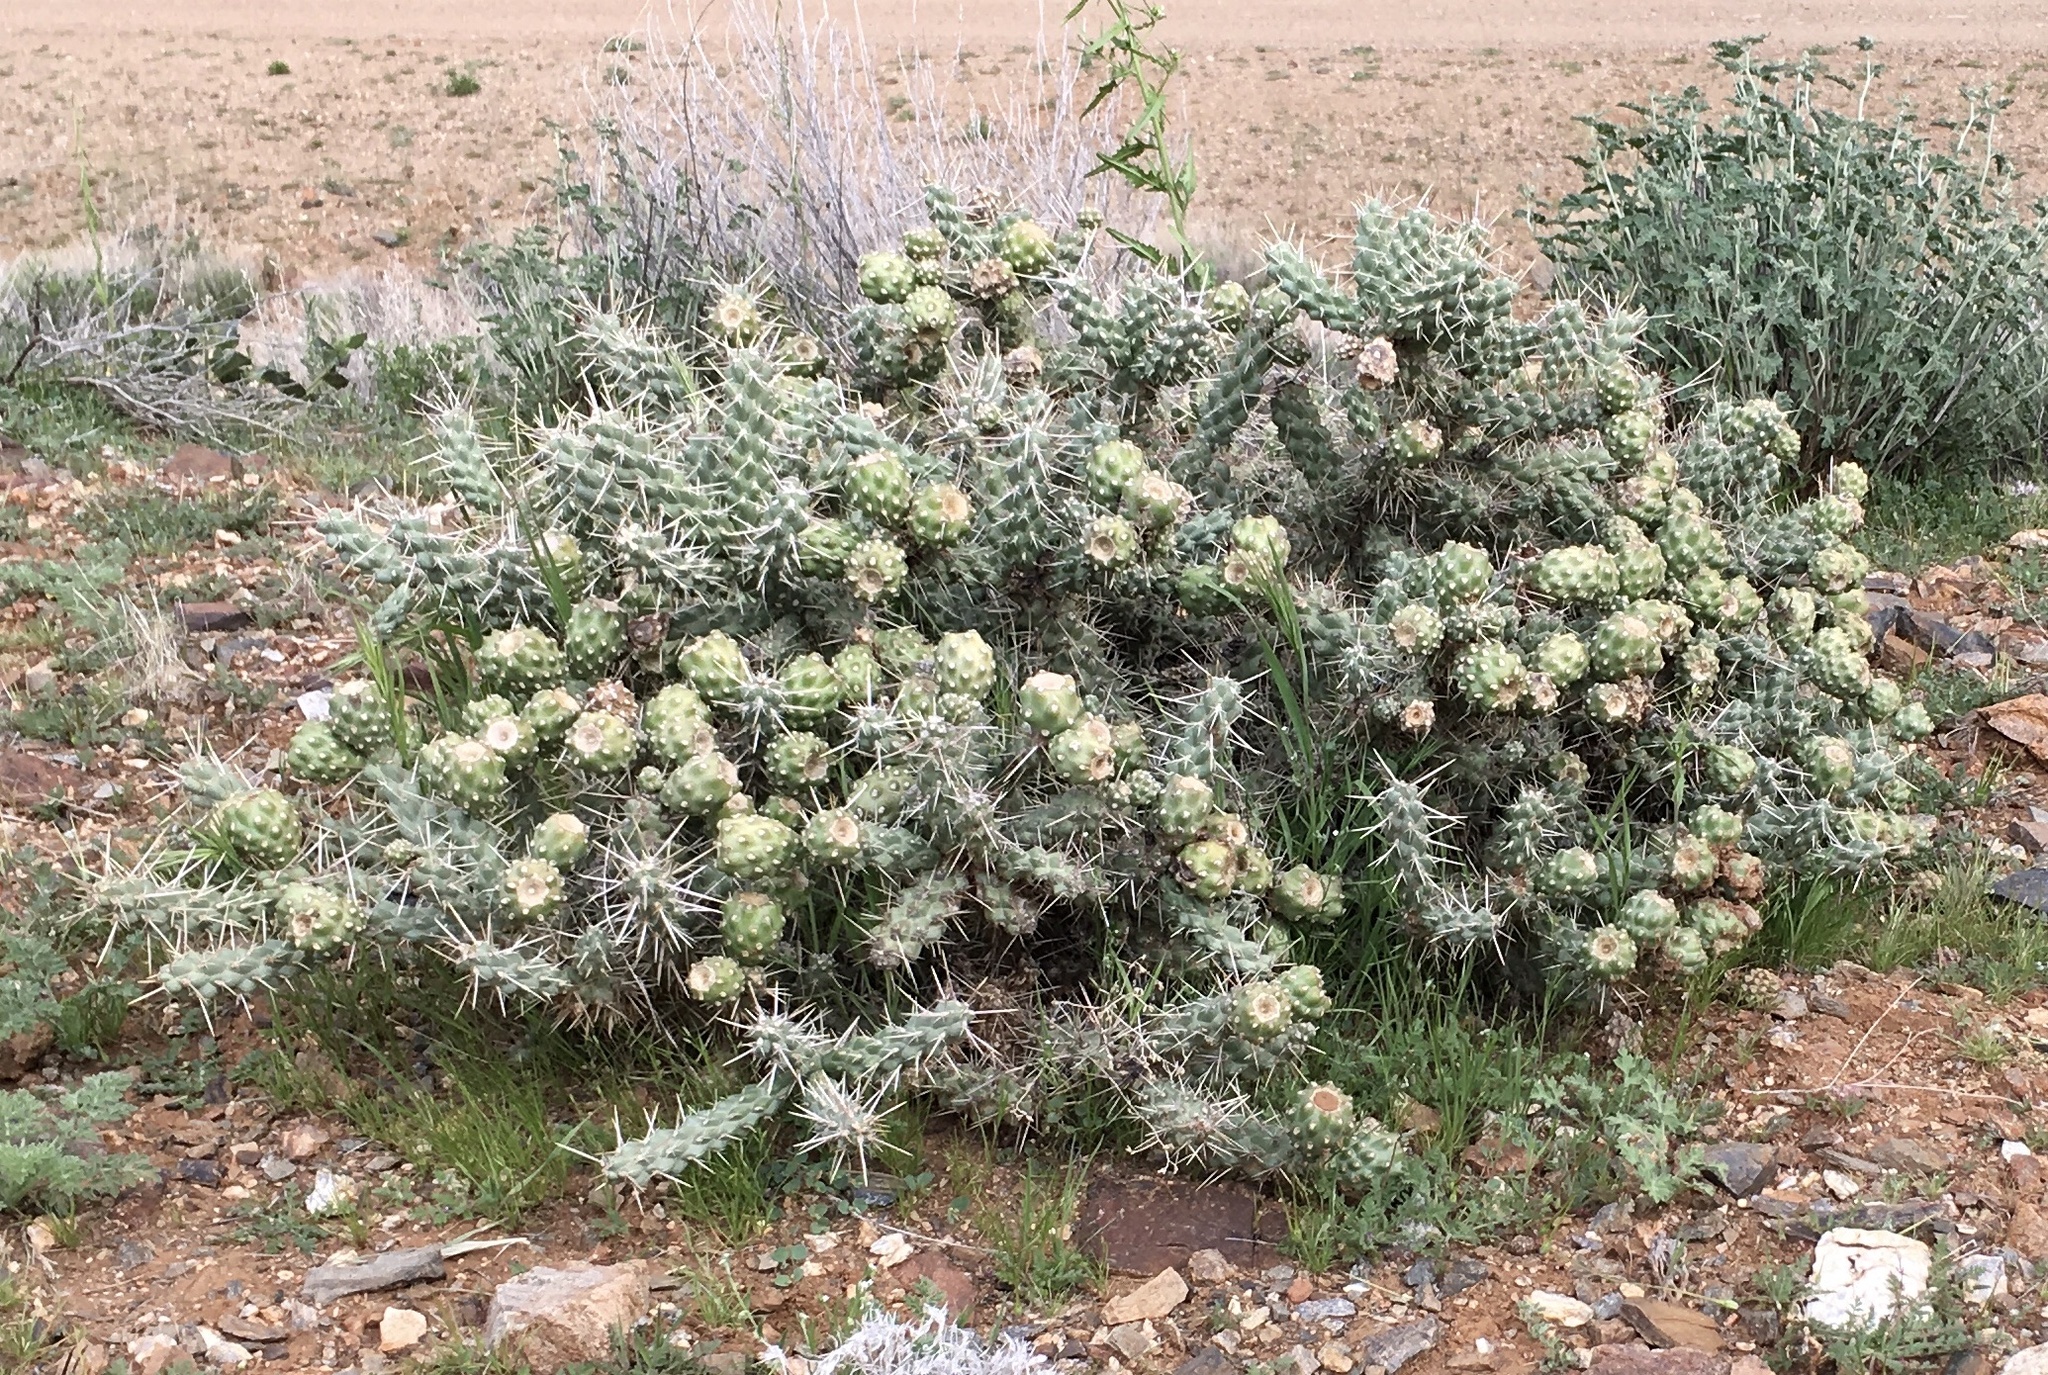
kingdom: Plantae
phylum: Tracheophyta
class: Magnoliopsida
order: Caryophyllales
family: Cactaceae
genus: Cylindropuntia
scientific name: Cylindropuntia whipplei
